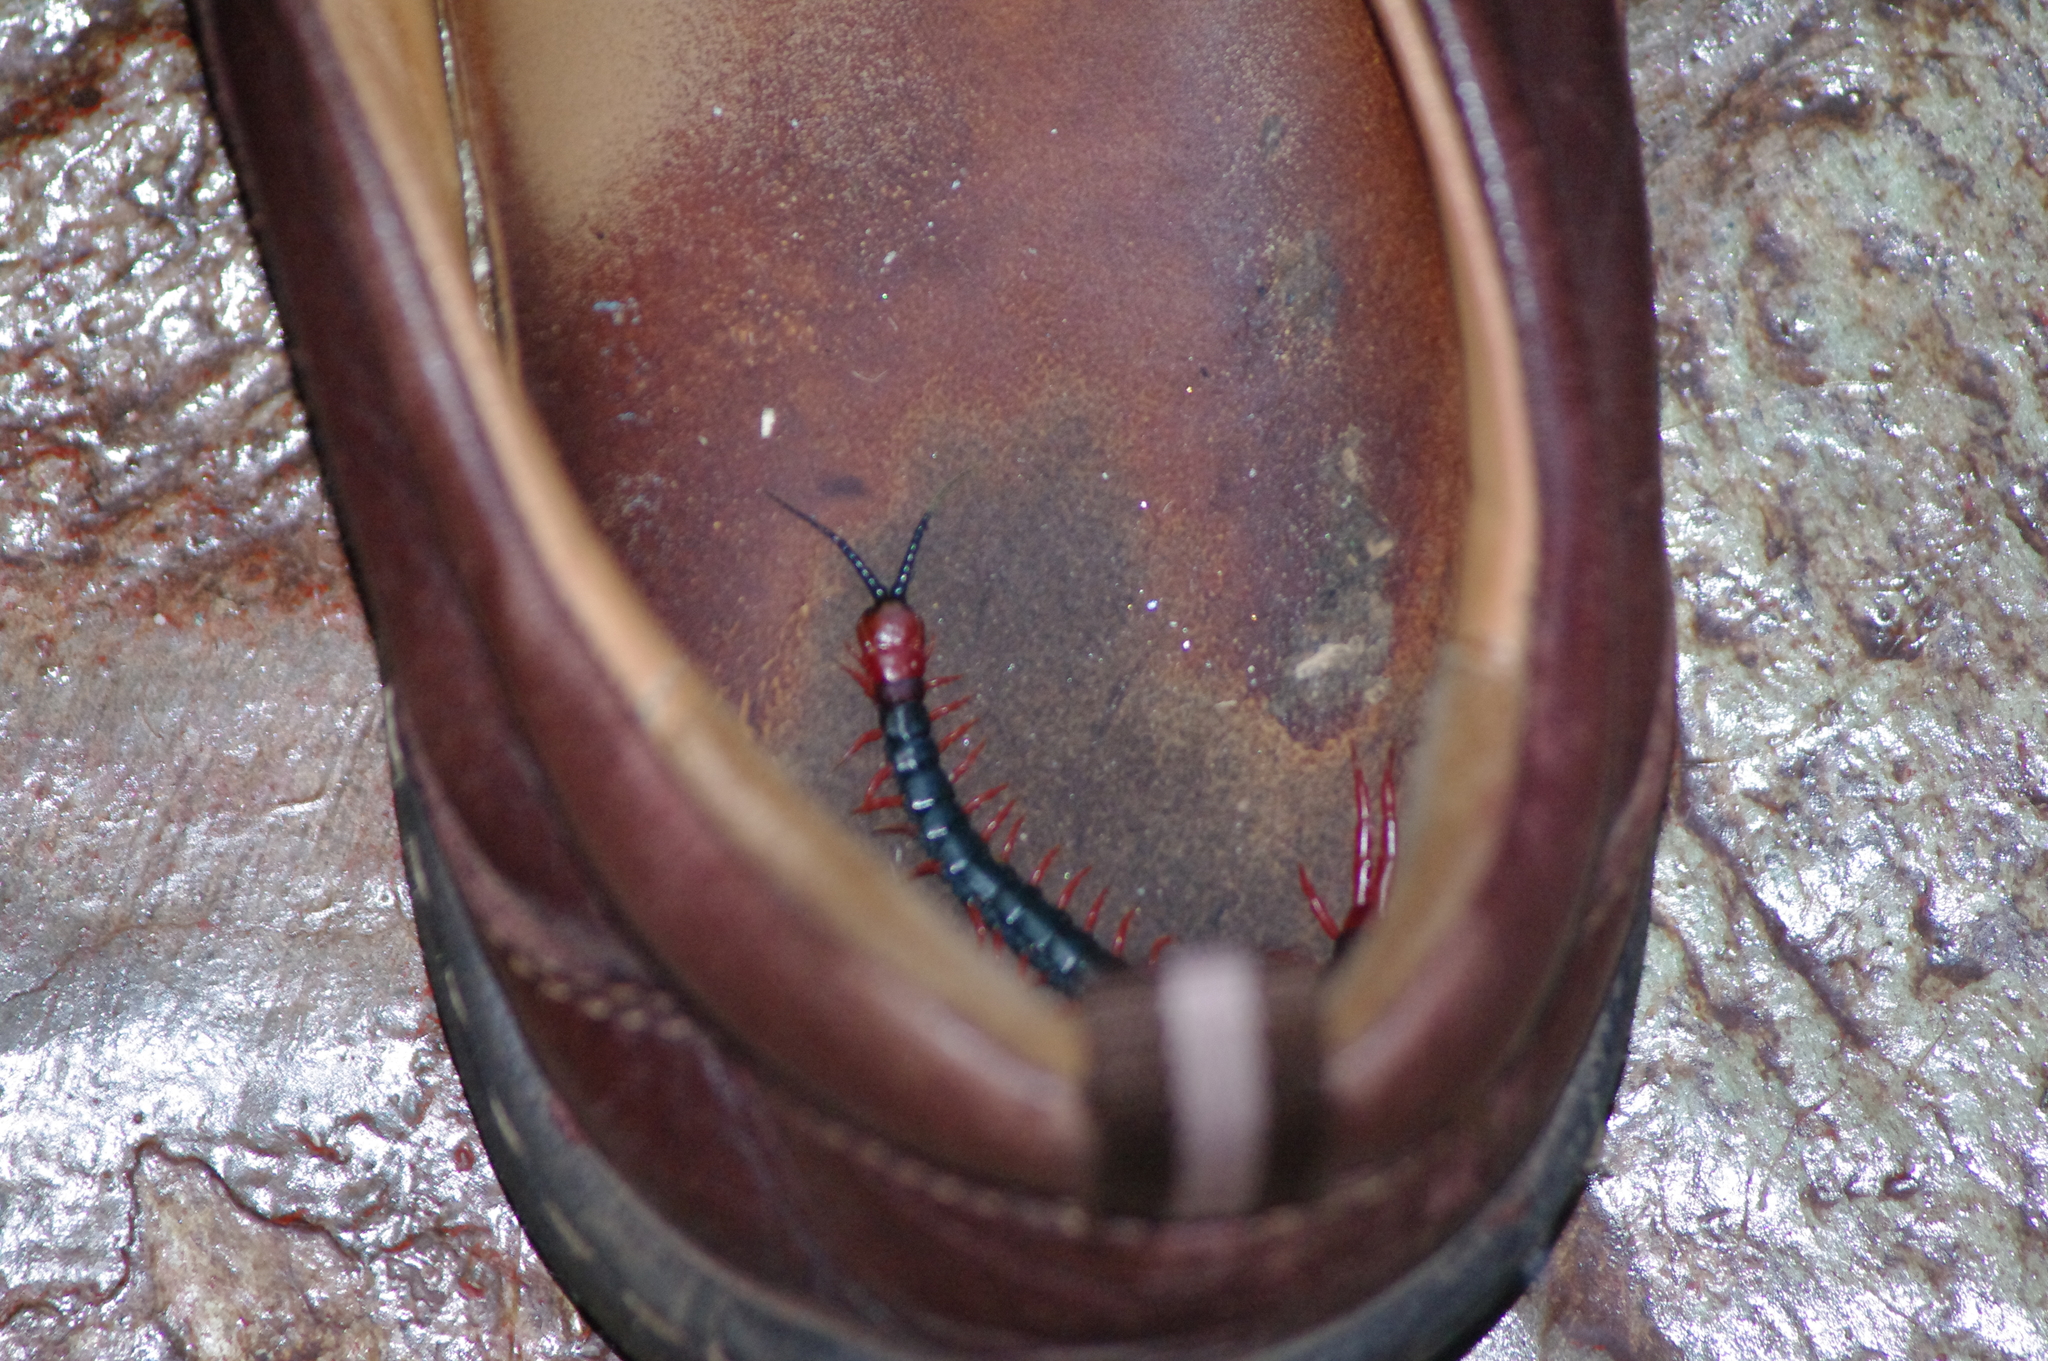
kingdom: Animalia
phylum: Arthropoda
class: Chilopoda
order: Scolopendromorpha
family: Scolopendridae
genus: Cormocephalus
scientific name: Cormocephalus nitidus
